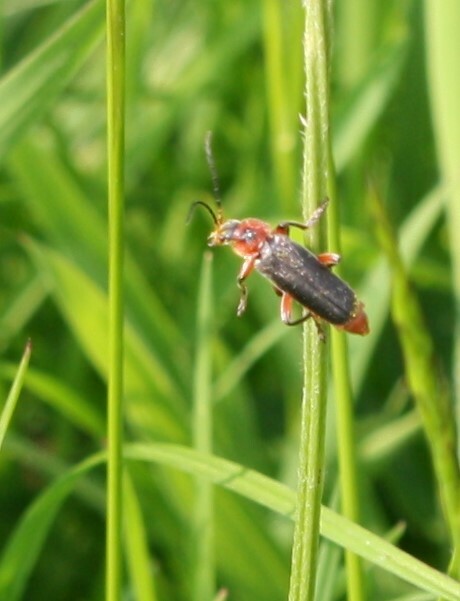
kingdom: Animalia
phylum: Arthropoda
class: Insecta
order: Coleoptera
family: Cantharidae
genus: Cantharis
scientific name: Cantharis rustica
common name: Soldier beetle
